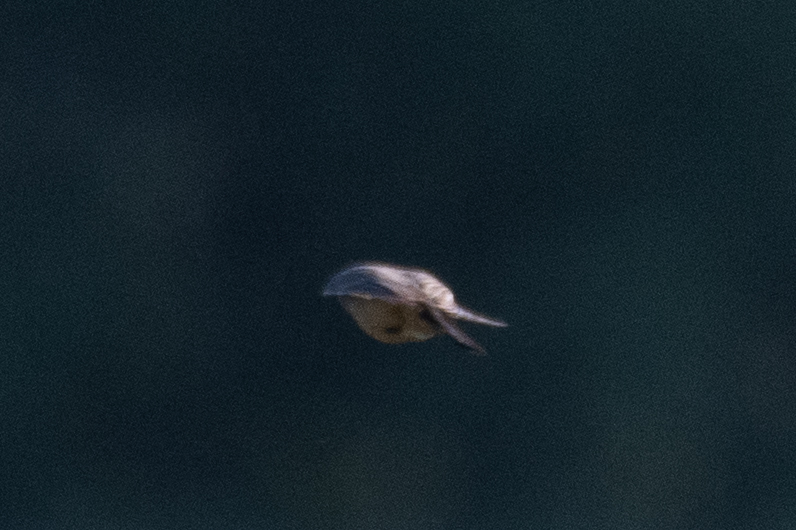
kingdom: Animalia
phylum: Chordata
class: Aves
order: Passeriformes
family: Passerellidae
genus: Melozone
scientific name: Melozone crissalis
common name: California towhee
